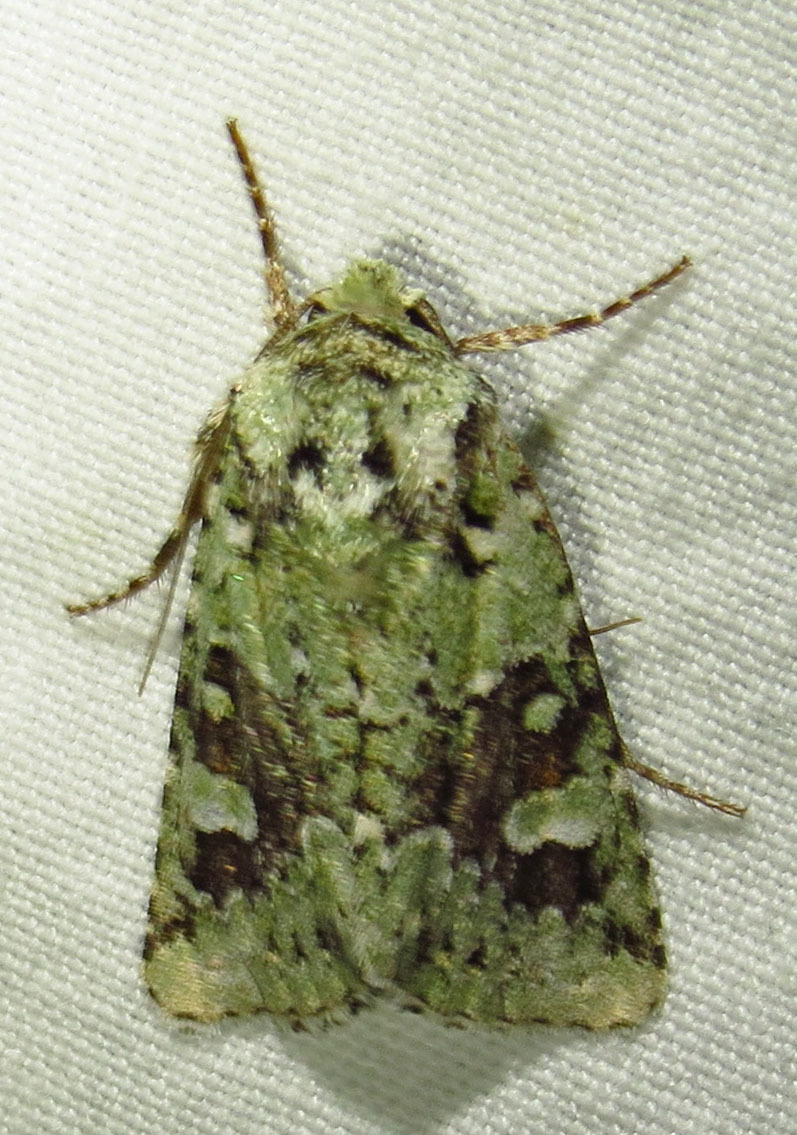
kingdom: Animalia
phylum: Arthropoda
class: Insecta
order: Lepidoptera
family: Noctuidae
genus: Lacinipolia
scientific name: Lacinipolia laudabilis
